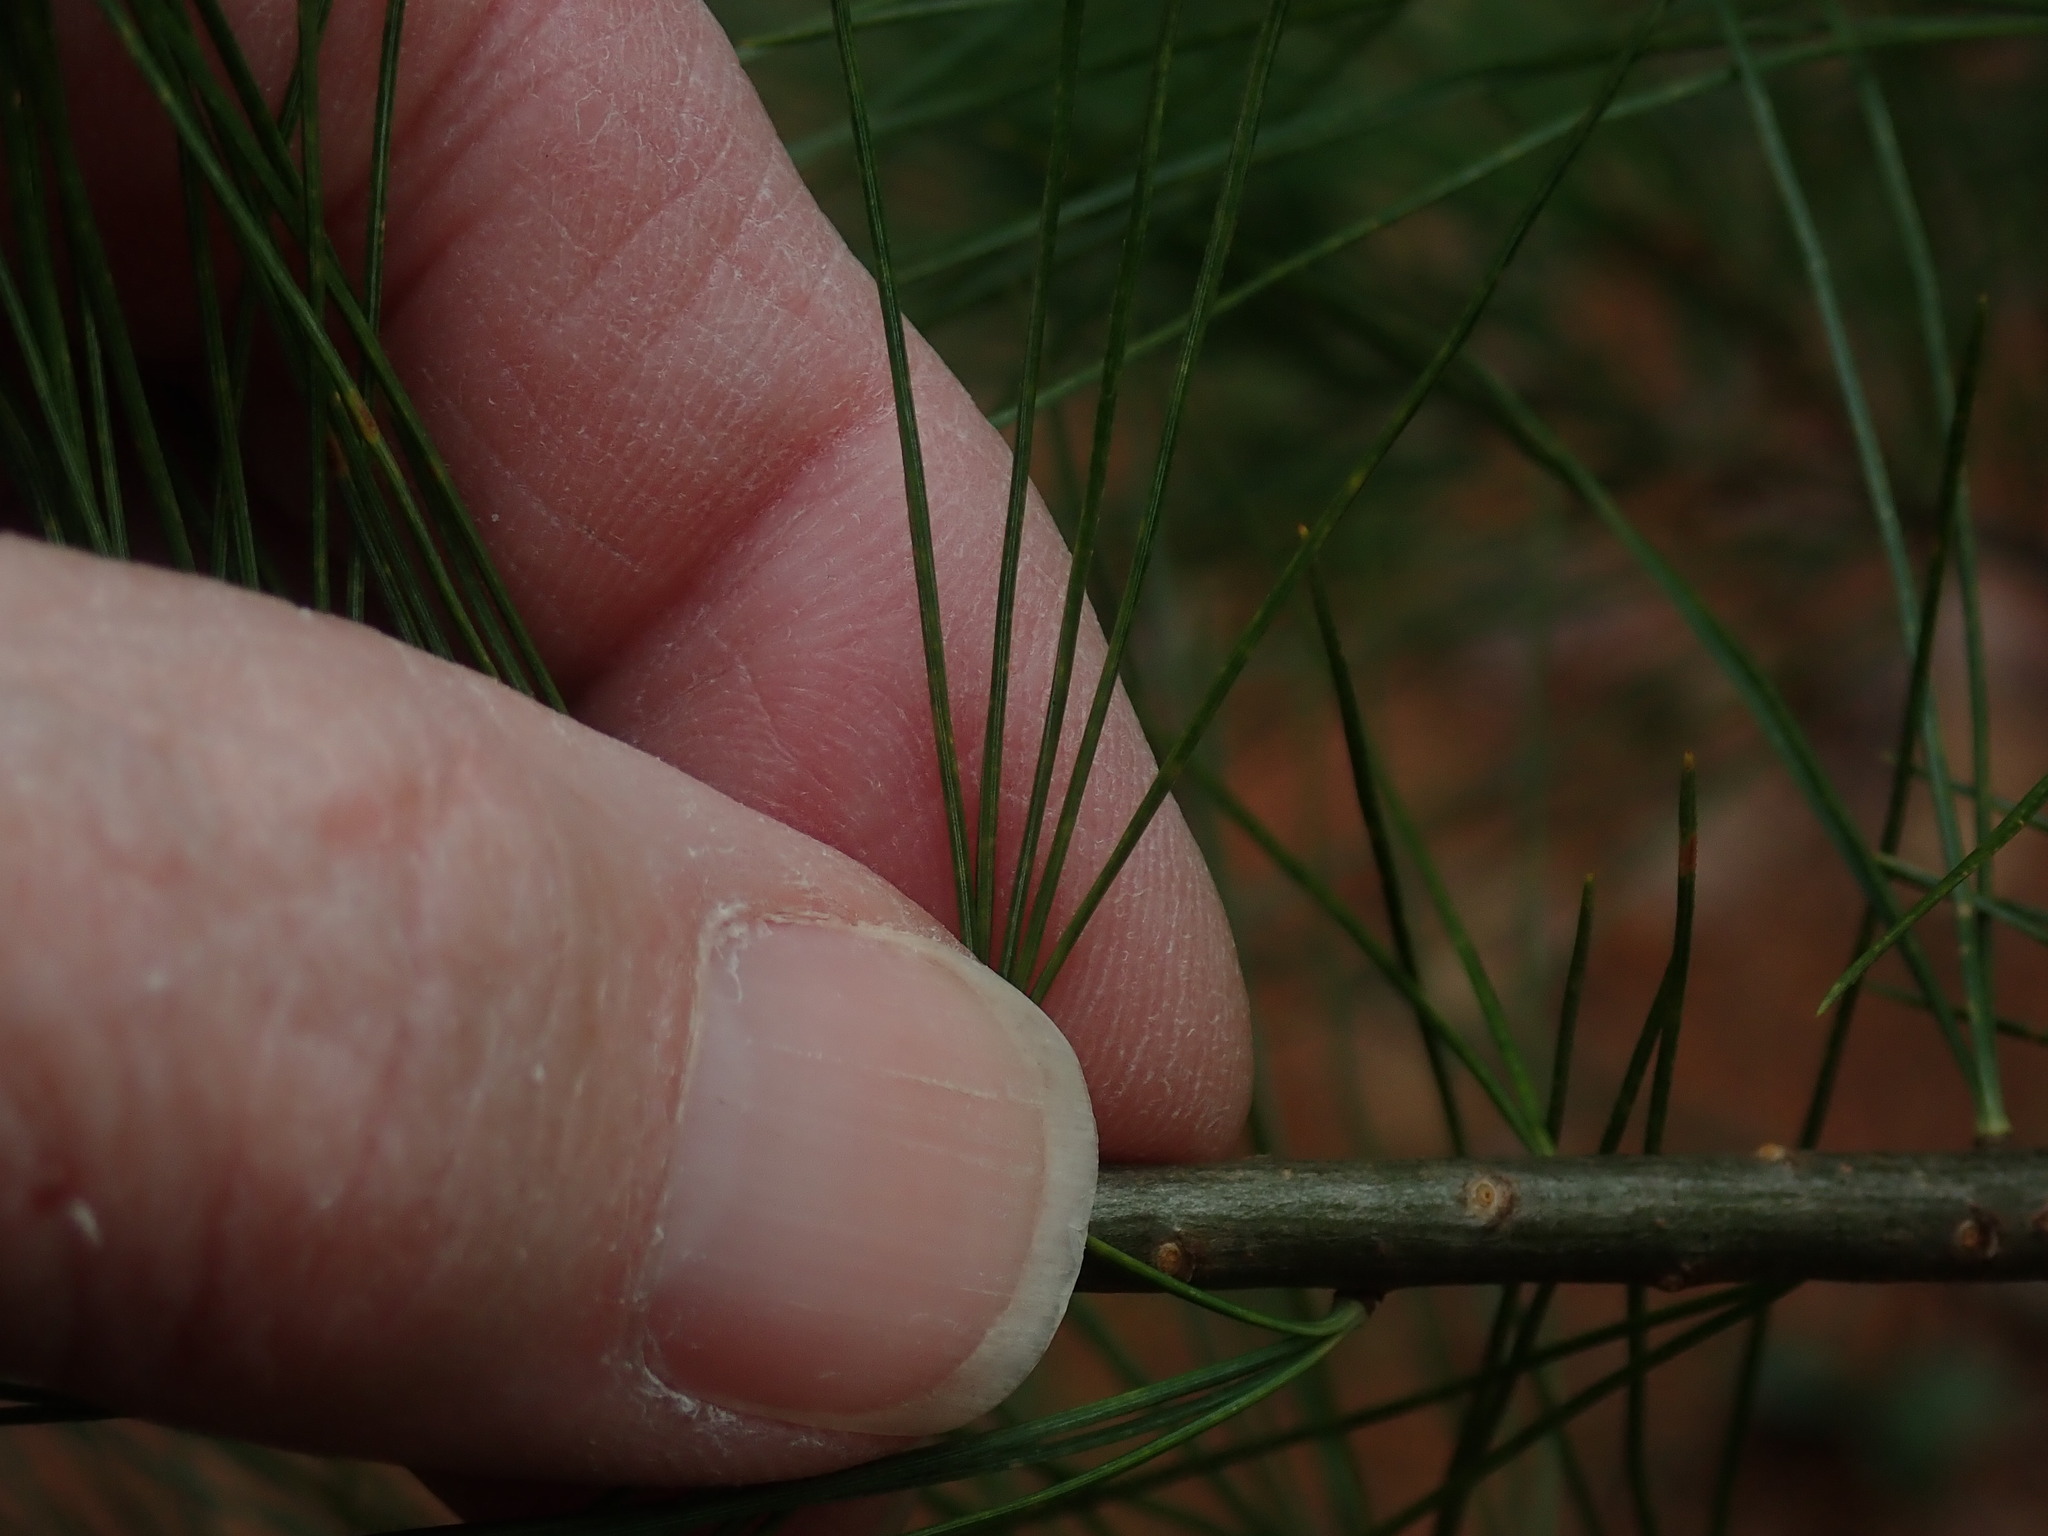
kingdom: Plantae
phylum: Tracheophyta
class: Pinopsida
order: Pinales
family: Pinaceae
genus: Pinus
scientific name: Pinus strobus
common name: Weymouth pine
